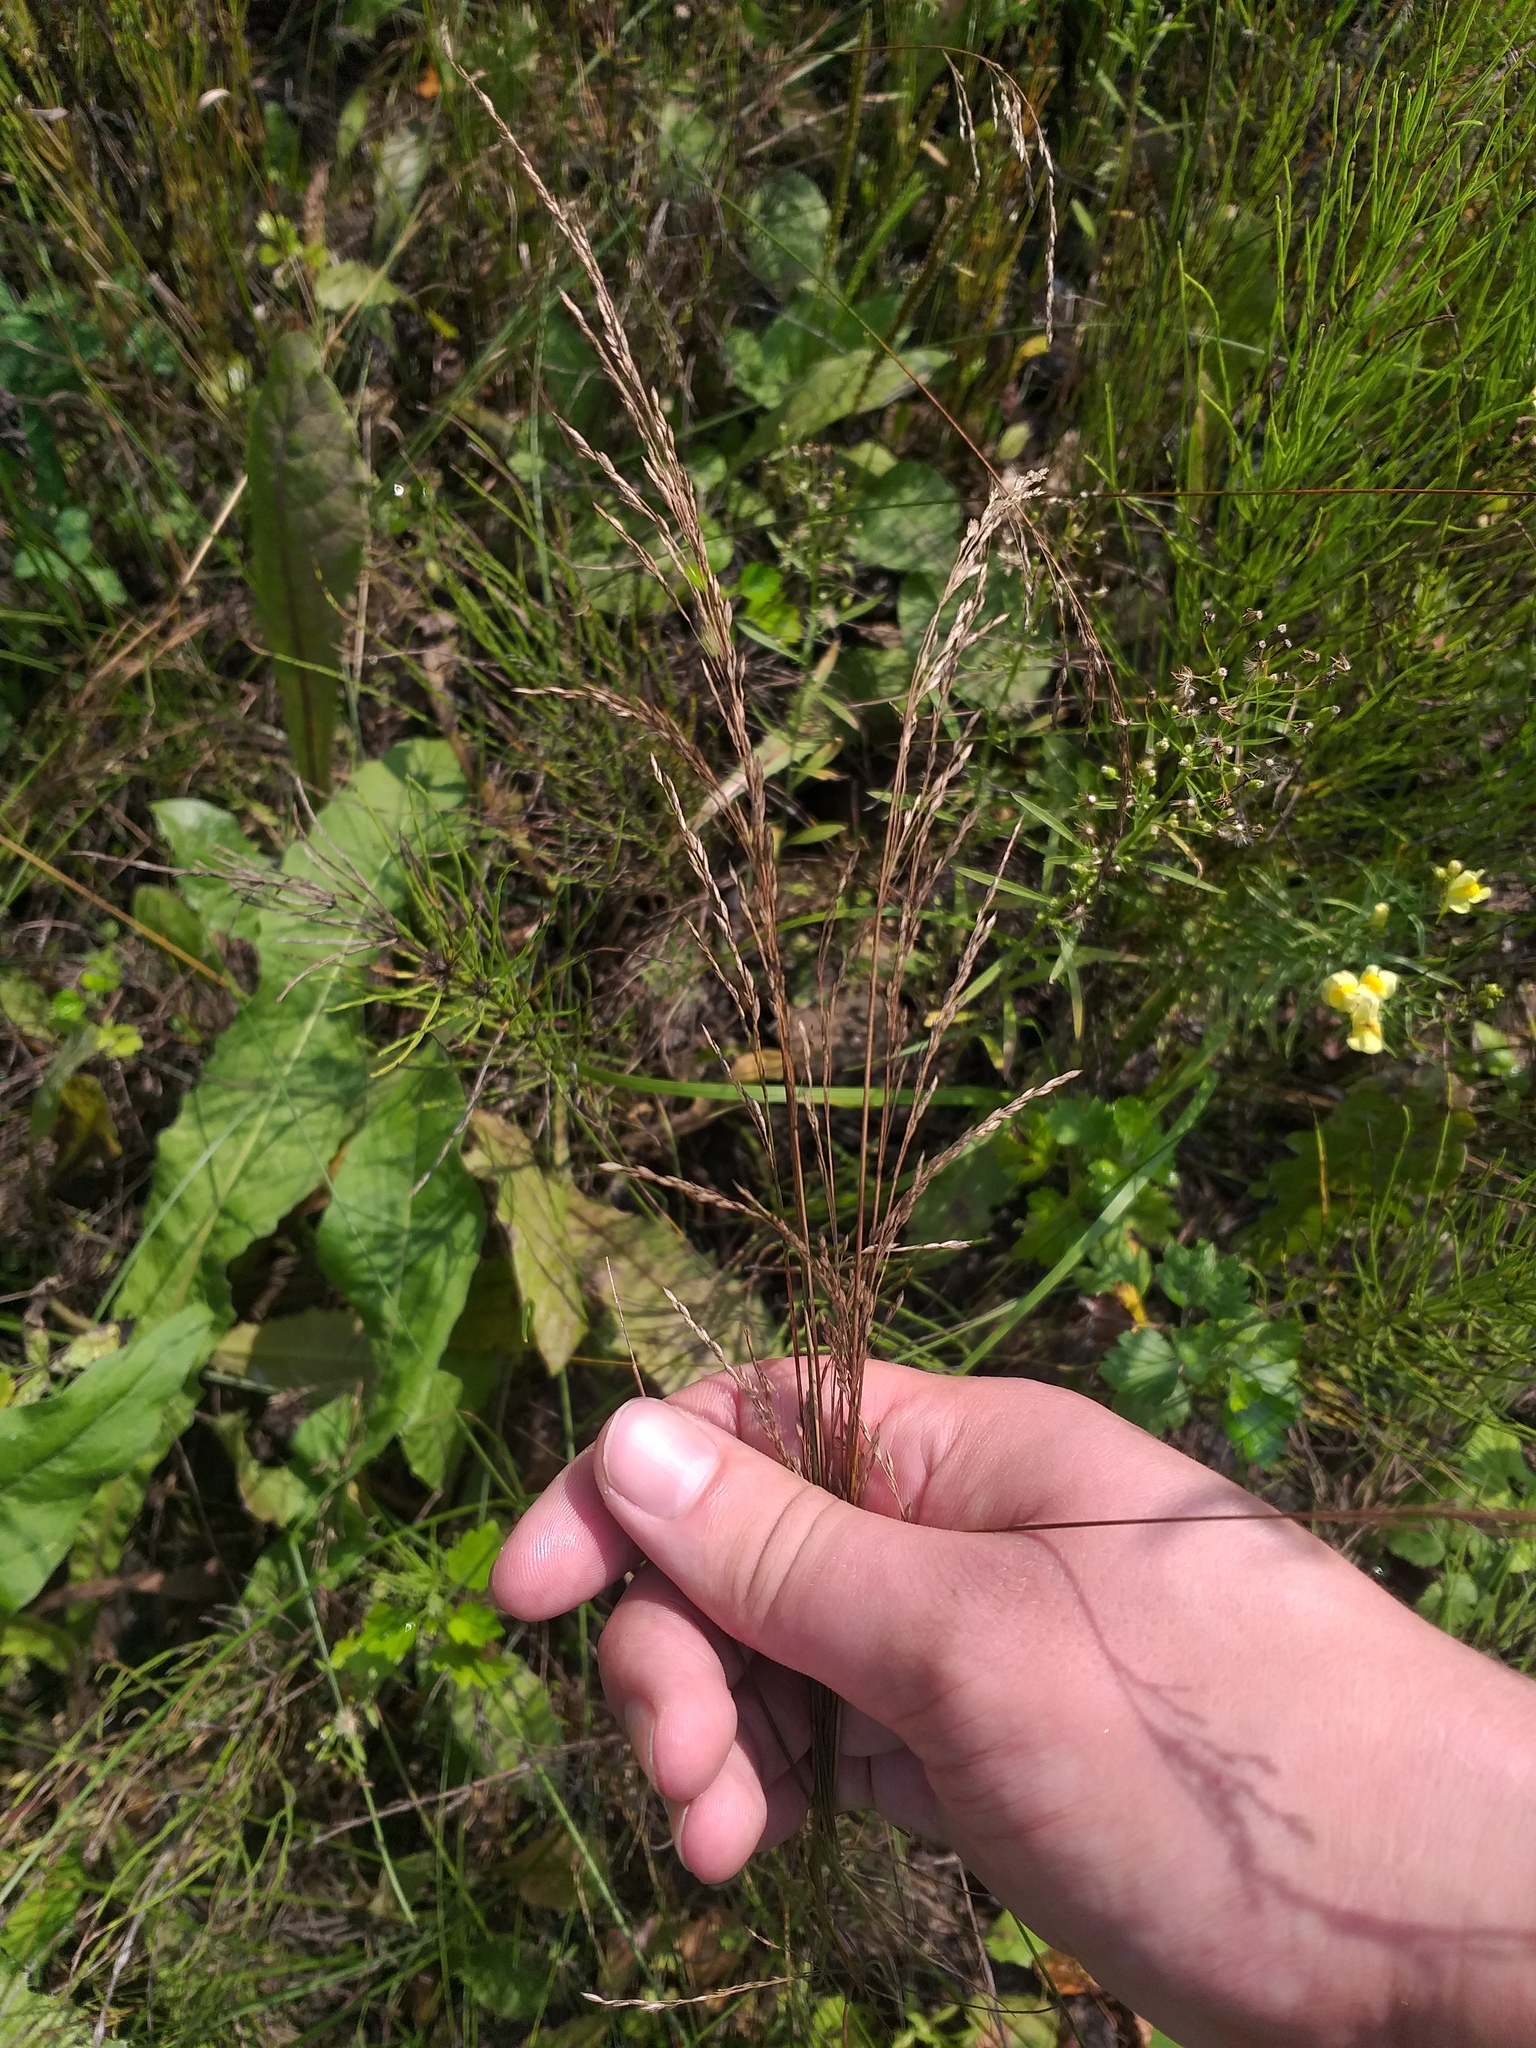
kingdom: Plantae
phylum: Tracheophyta
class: Liliopsida
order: Poales
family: Poaceae
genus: Poa
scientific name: Poa angustifolia
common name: Narrow-leaved meadow-grass
